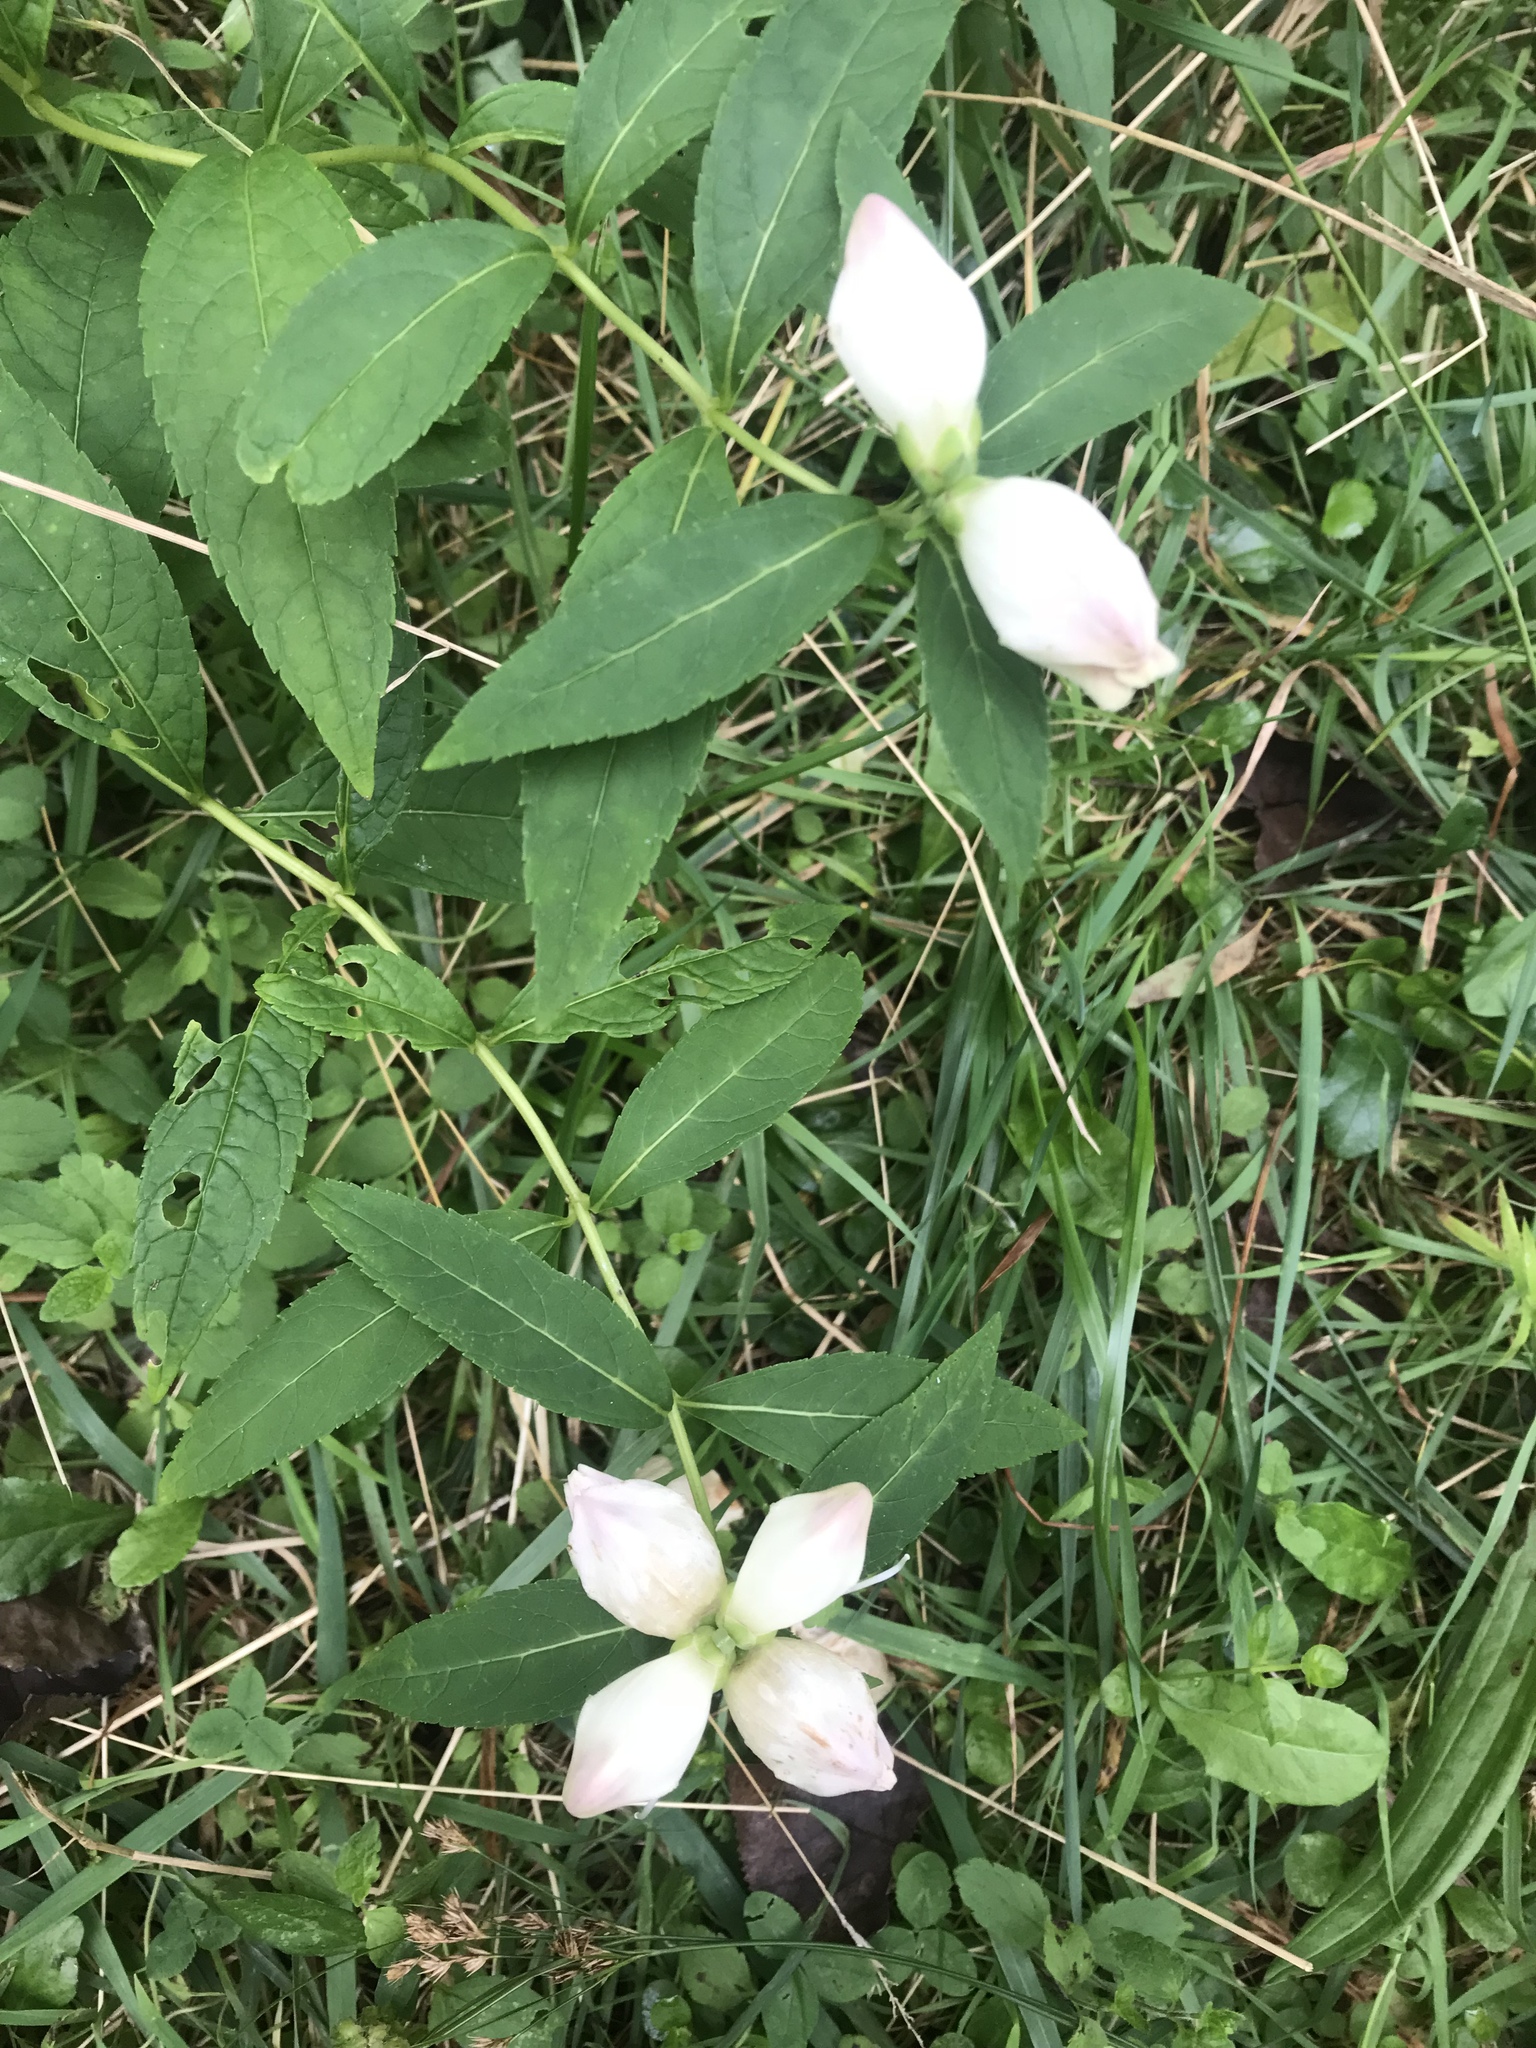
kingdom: Plantae
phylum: Tracheophyta
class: Magnoliopsida
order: Lamiales
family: Plantaginaceae
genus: Chelone
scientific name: Chelone glabra
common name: Snakehead
